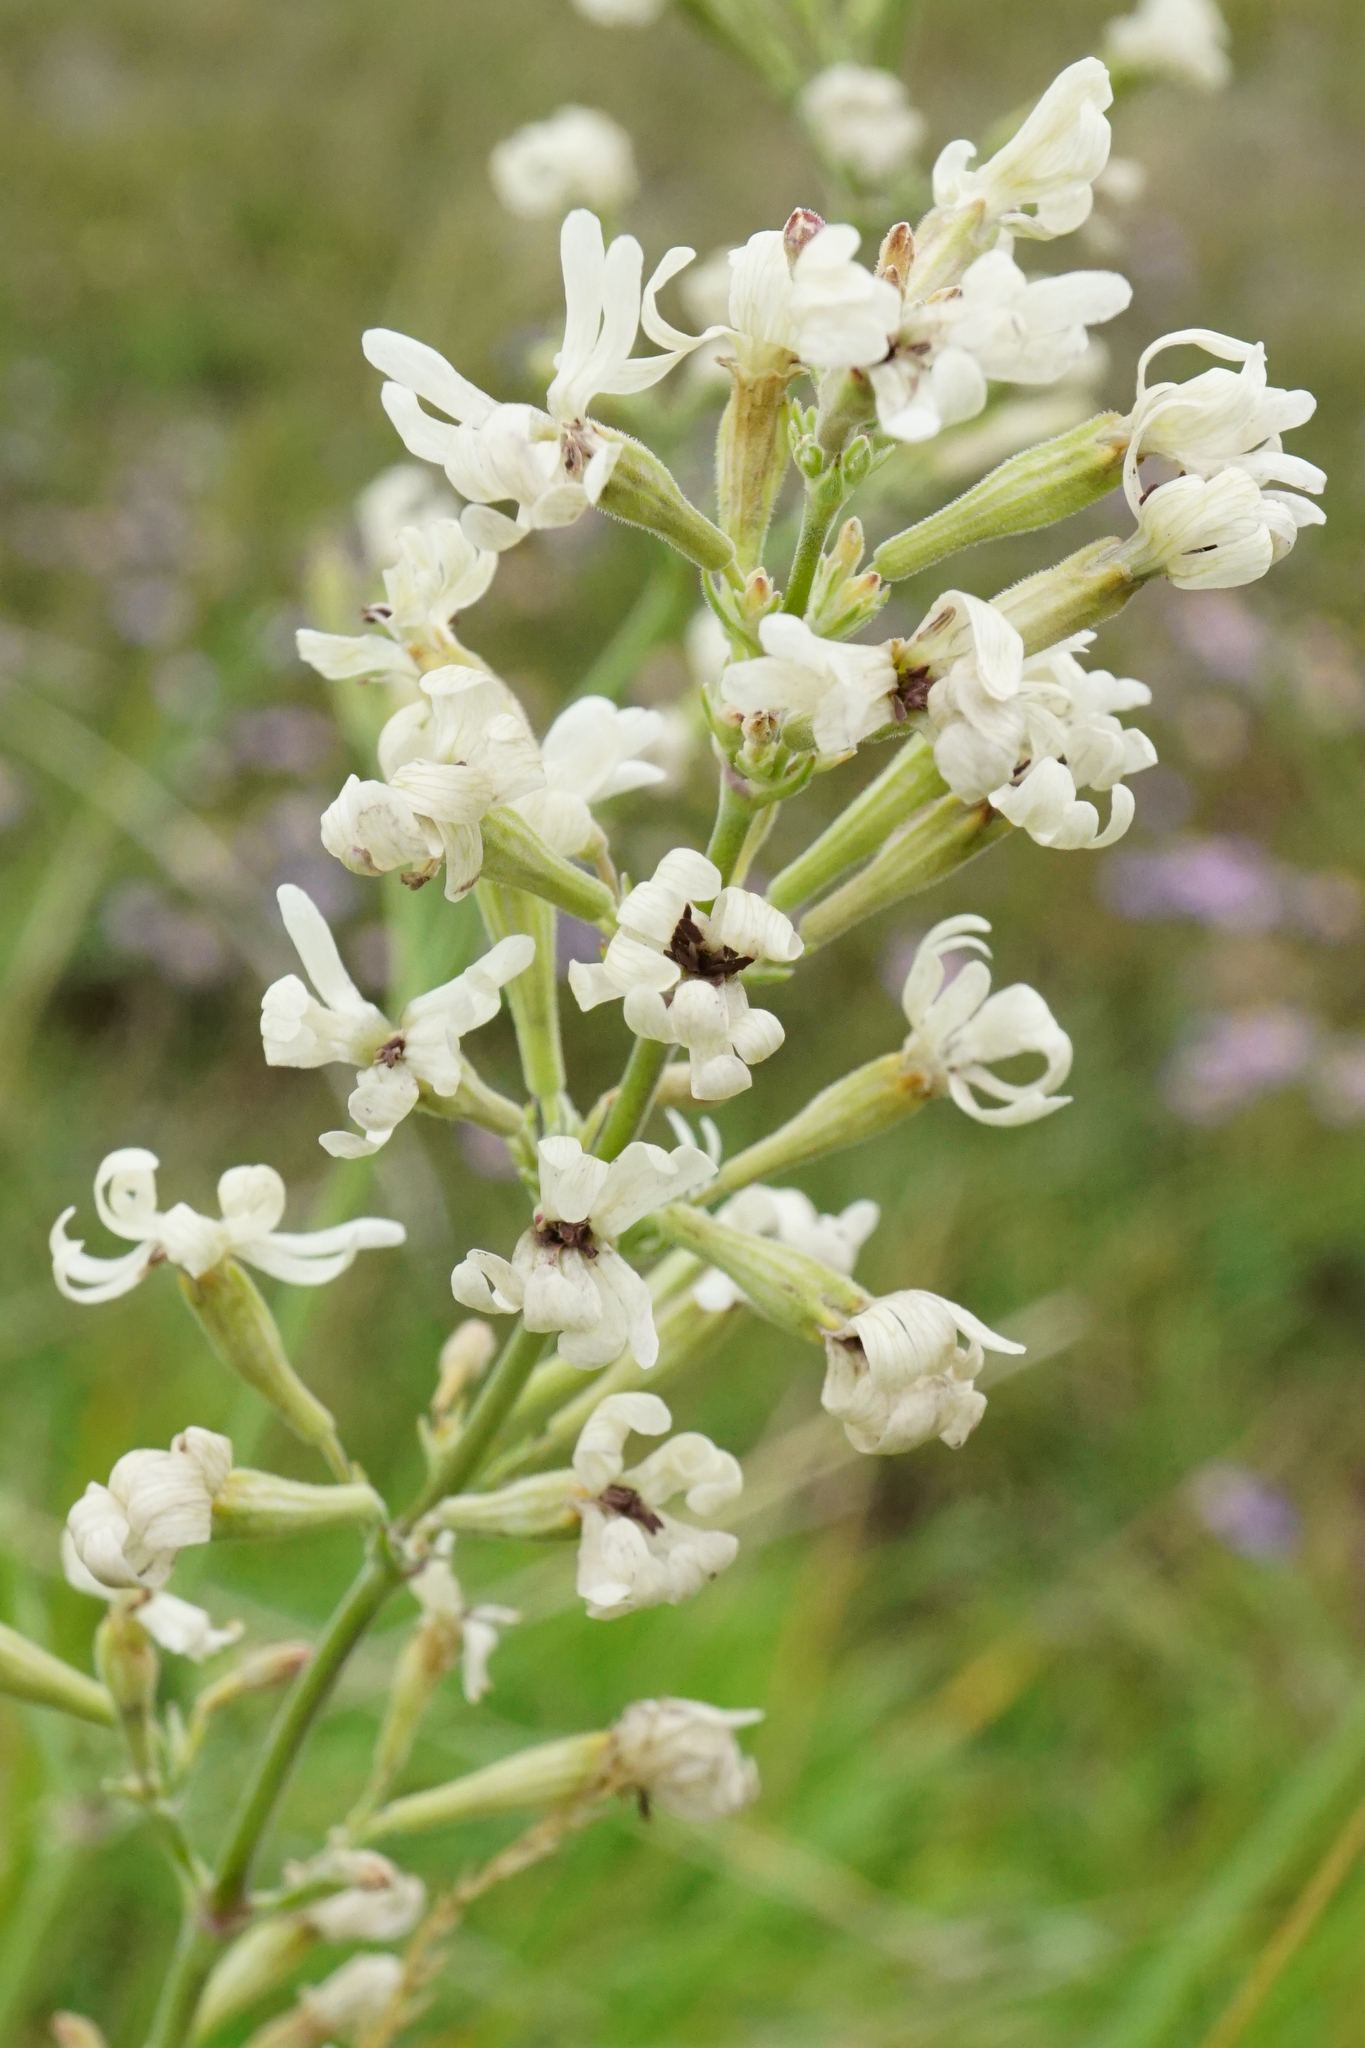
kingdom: Plantae
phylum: Tracheophyta
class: Magnoliopsida
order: Caryophyllales
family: Caryophyllaceae
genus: Silene
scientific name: Silene multiflora
